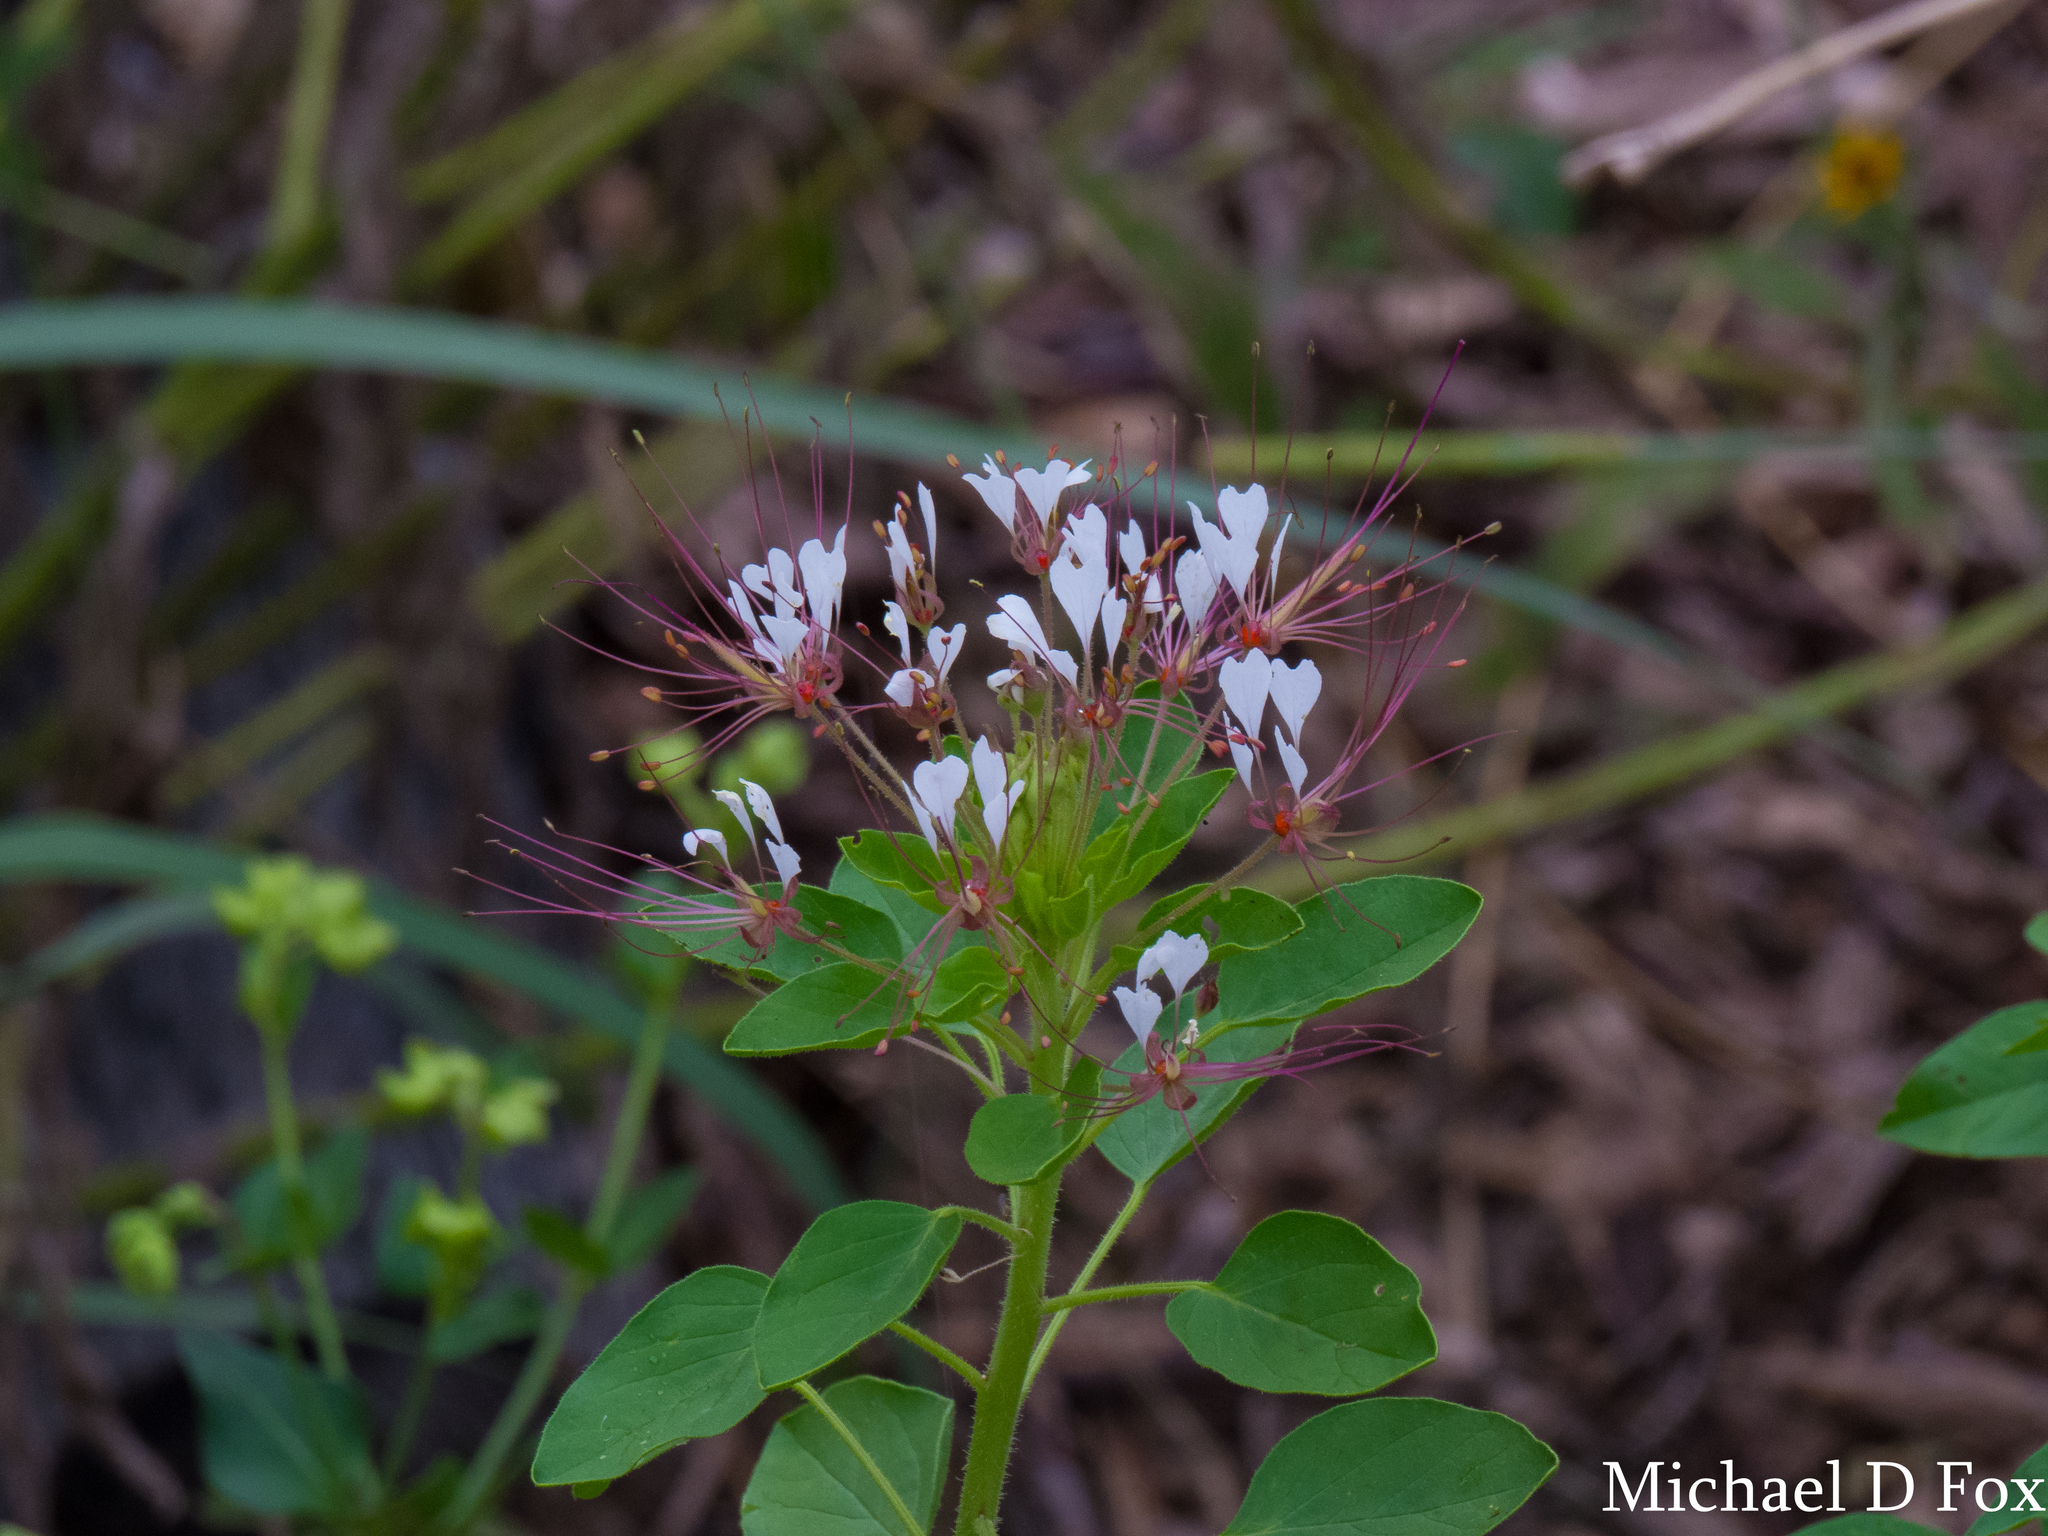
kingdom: Plantae
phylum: Tracheophyta
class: Magnoliopsida
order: Brassicales
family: Cleomaceae
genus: Polanisia
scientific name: Polanisia dodecandra
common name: Clammyweed
